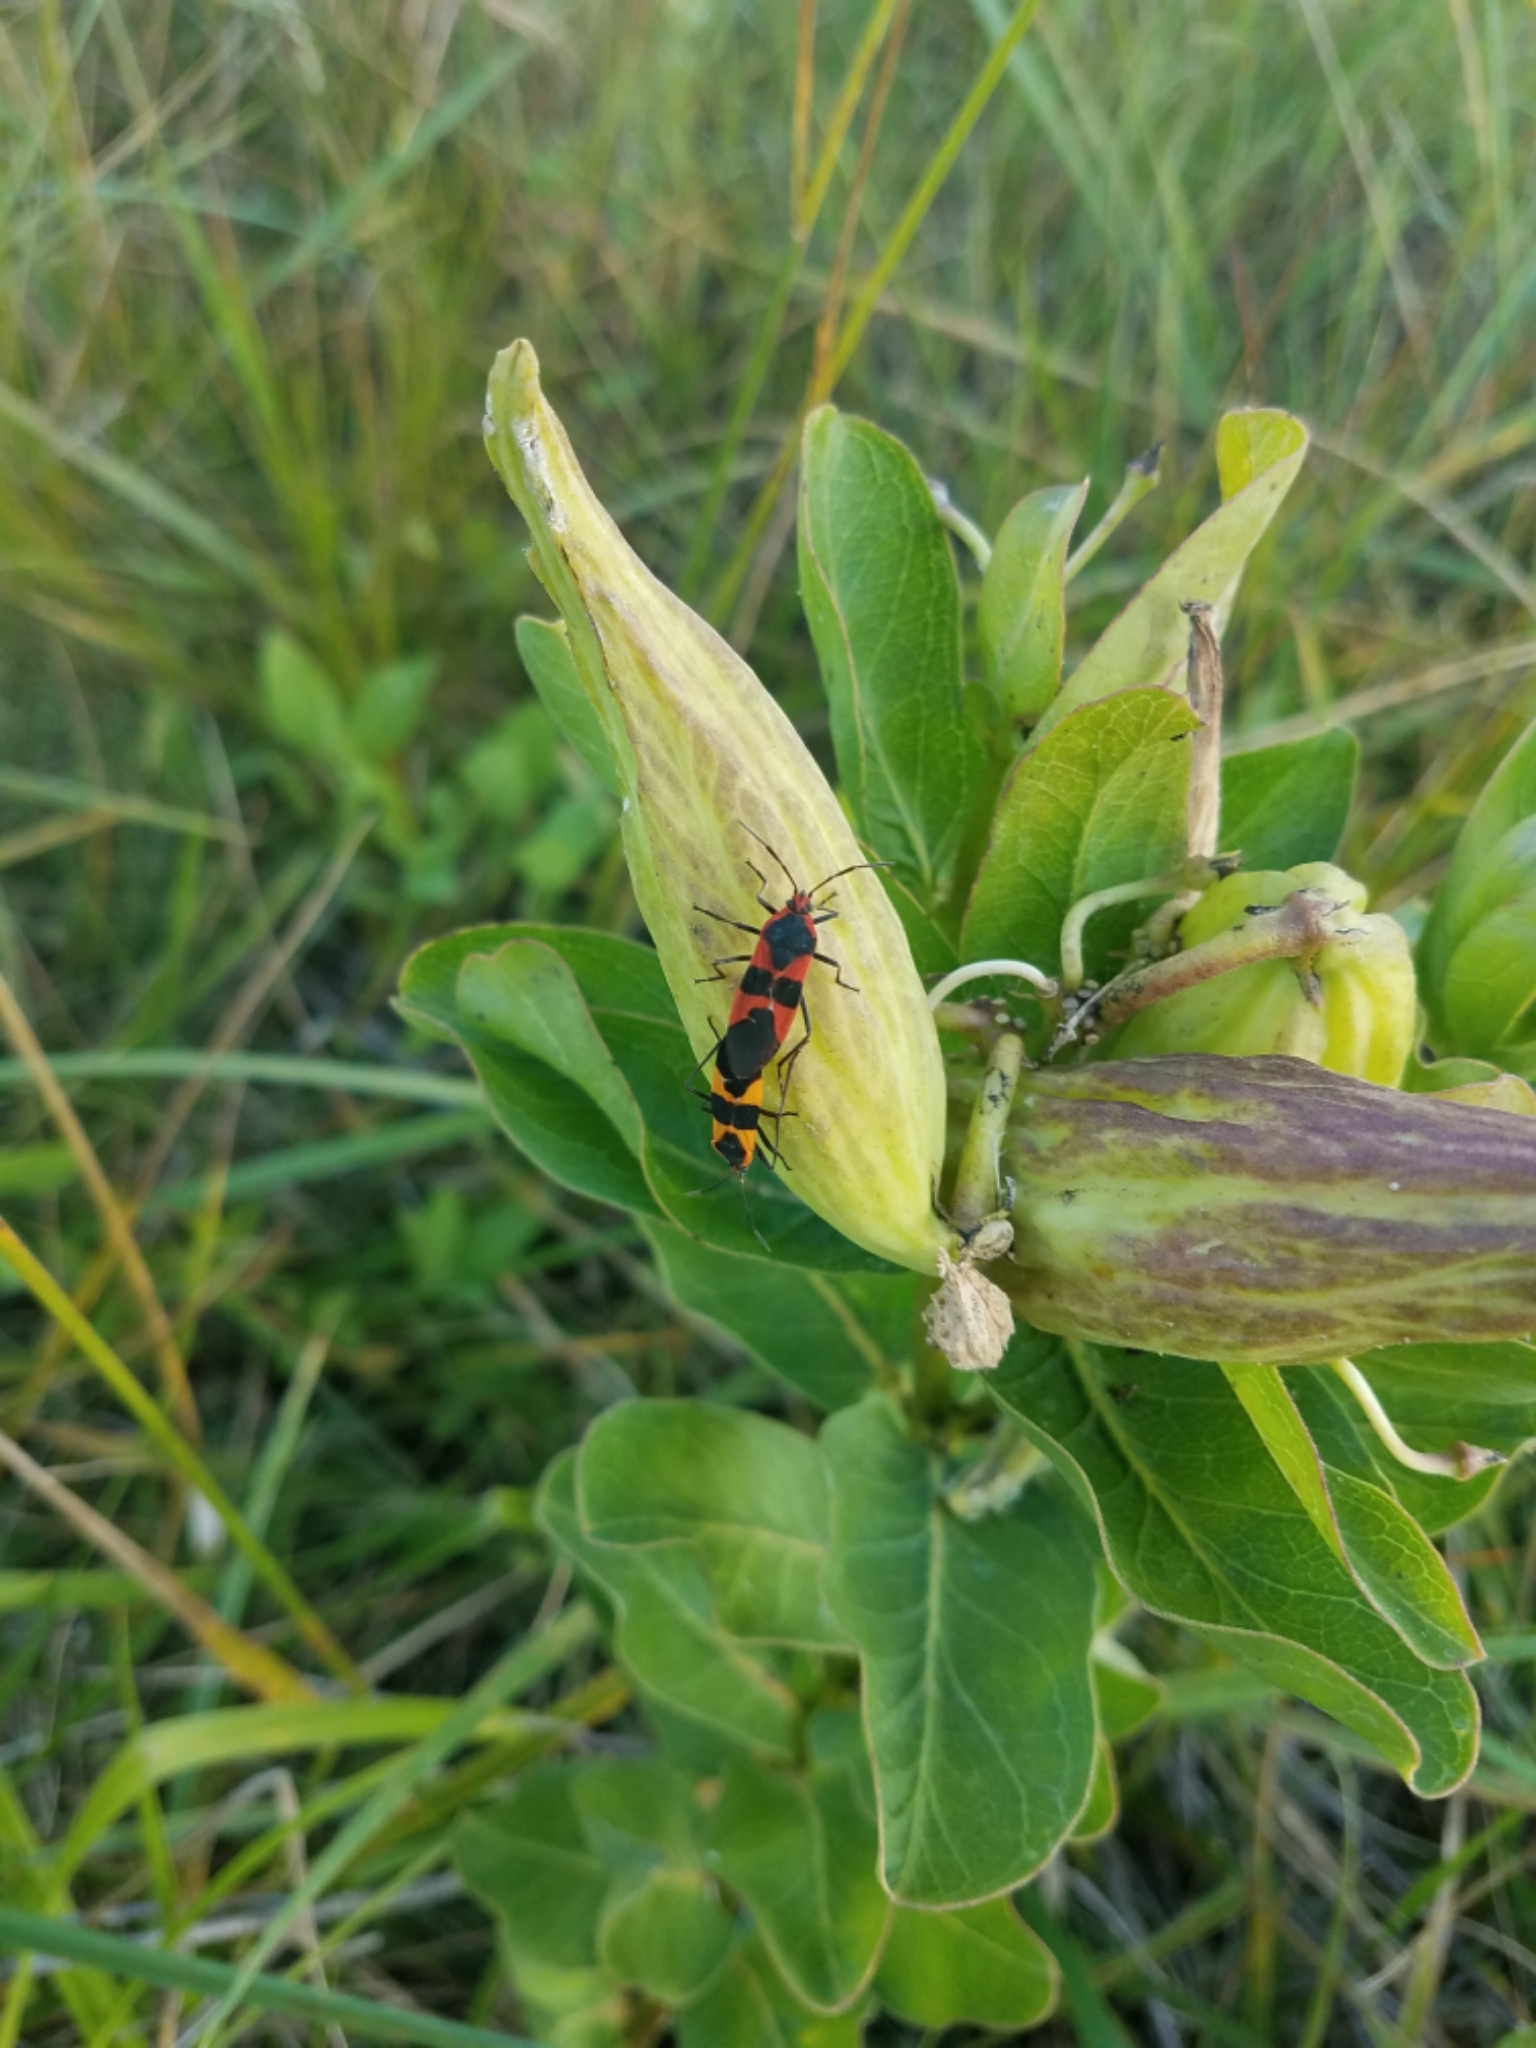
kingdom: Animalia
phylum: Arthropoda
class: Insecta
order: Hemiptera
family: Lygaeidae
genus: Oncopeltus
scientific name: Oncopeltus fasciatus
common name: Large milkweed bug
